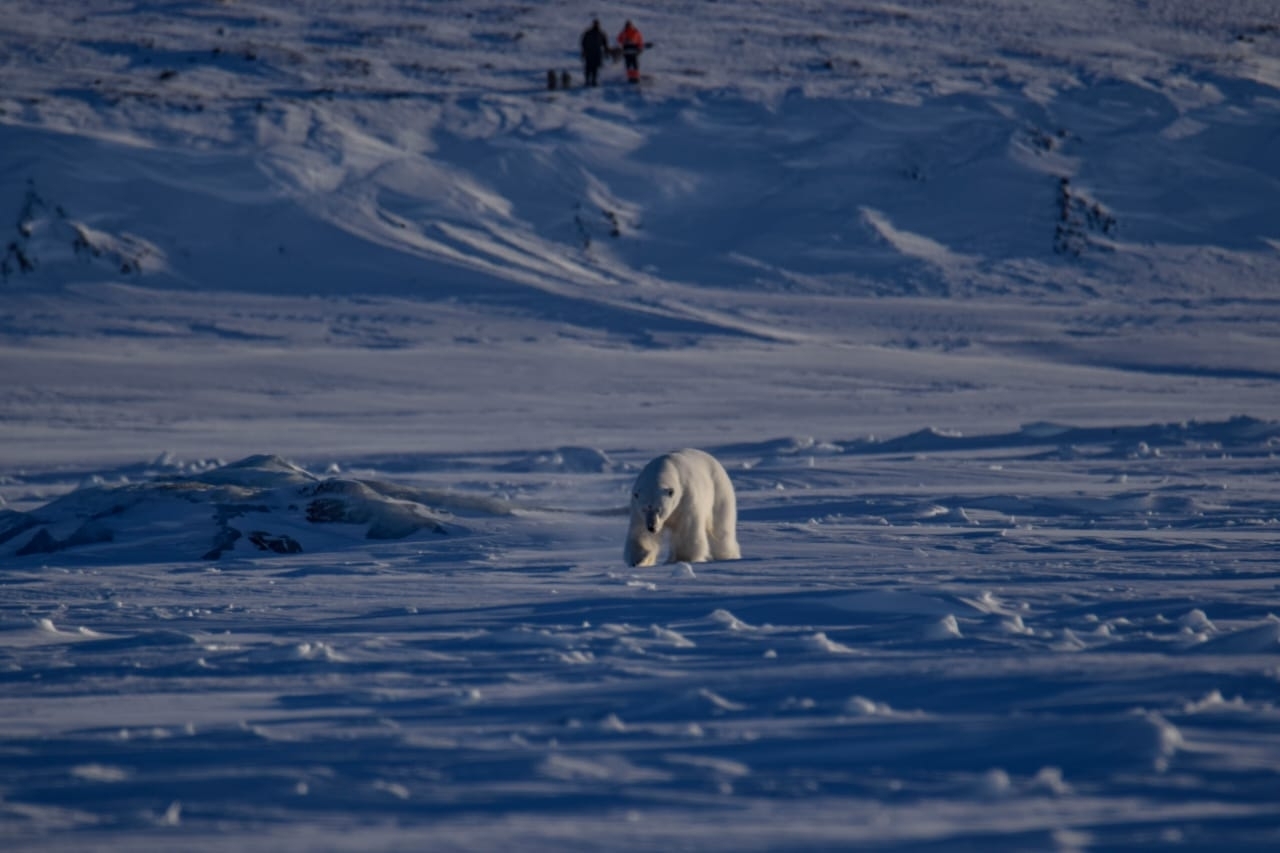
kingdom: Animalia
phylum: Chordata
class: Mammalia
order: Carnivora
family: Ursidae
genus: Ursus
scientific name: Ursus maritimus
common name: Polar bear
